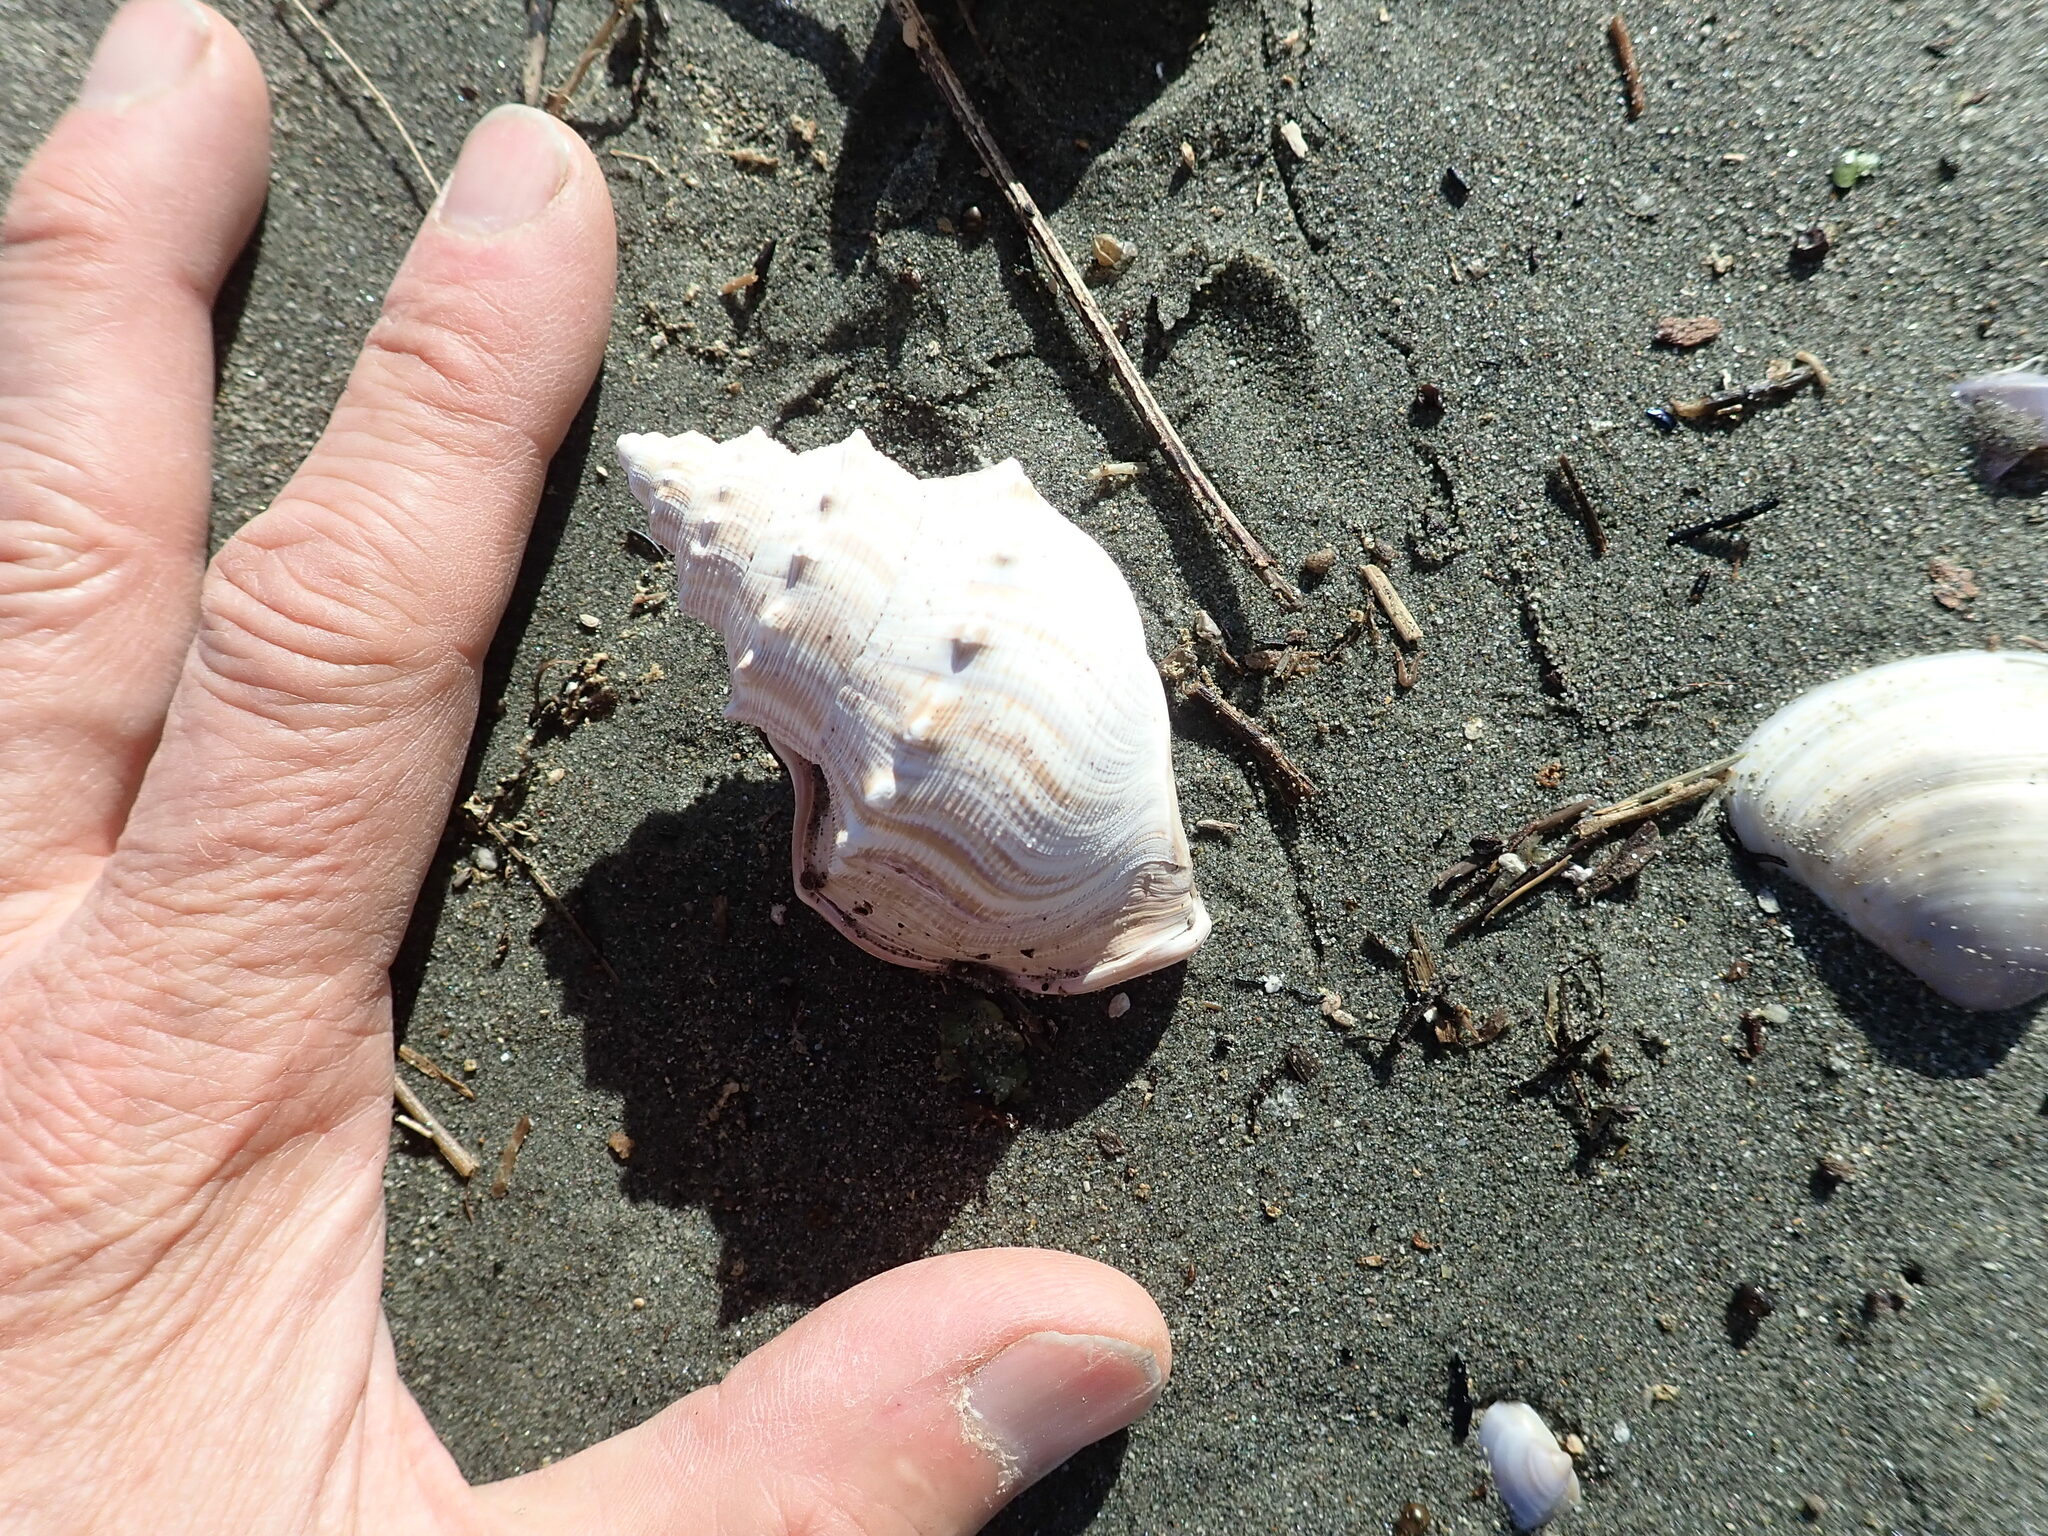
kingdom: Animalia
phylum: Mollusca
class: Gastropoda
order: Littorinimorpha
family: Struthiolariidae
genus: Struthiolaria
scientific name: Struthiolaria papulosa
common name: Large ostrich foot
